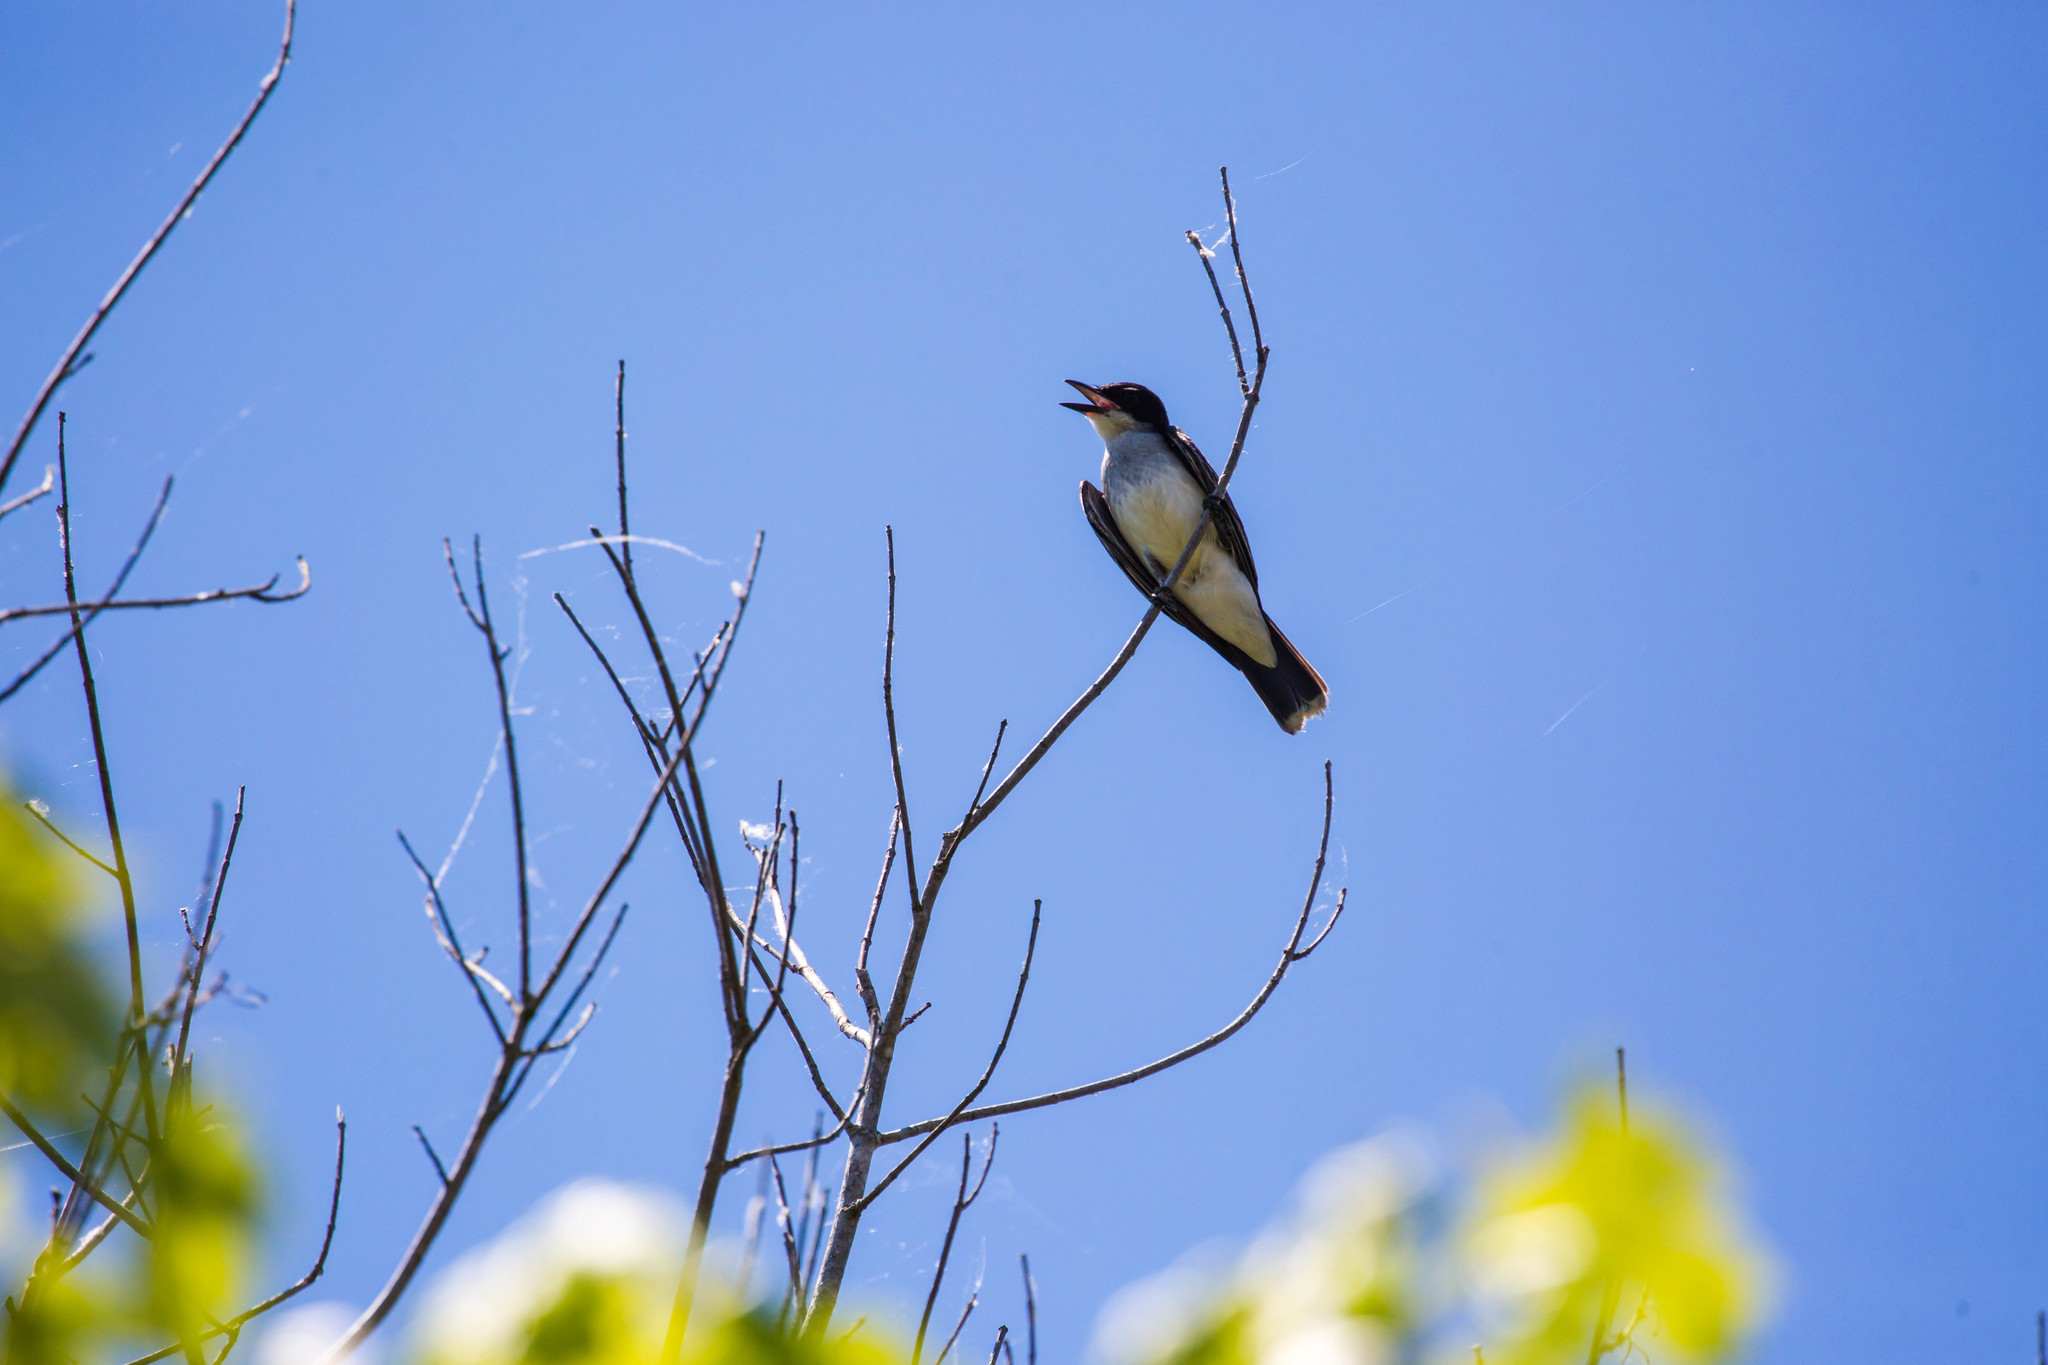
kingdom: Animalia
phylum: Chordata
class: Aves
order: Passeriformes
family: Tyrannidae
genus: Tyrannus
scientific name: Tyrannus tyrannus
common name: Eastern kingbird
